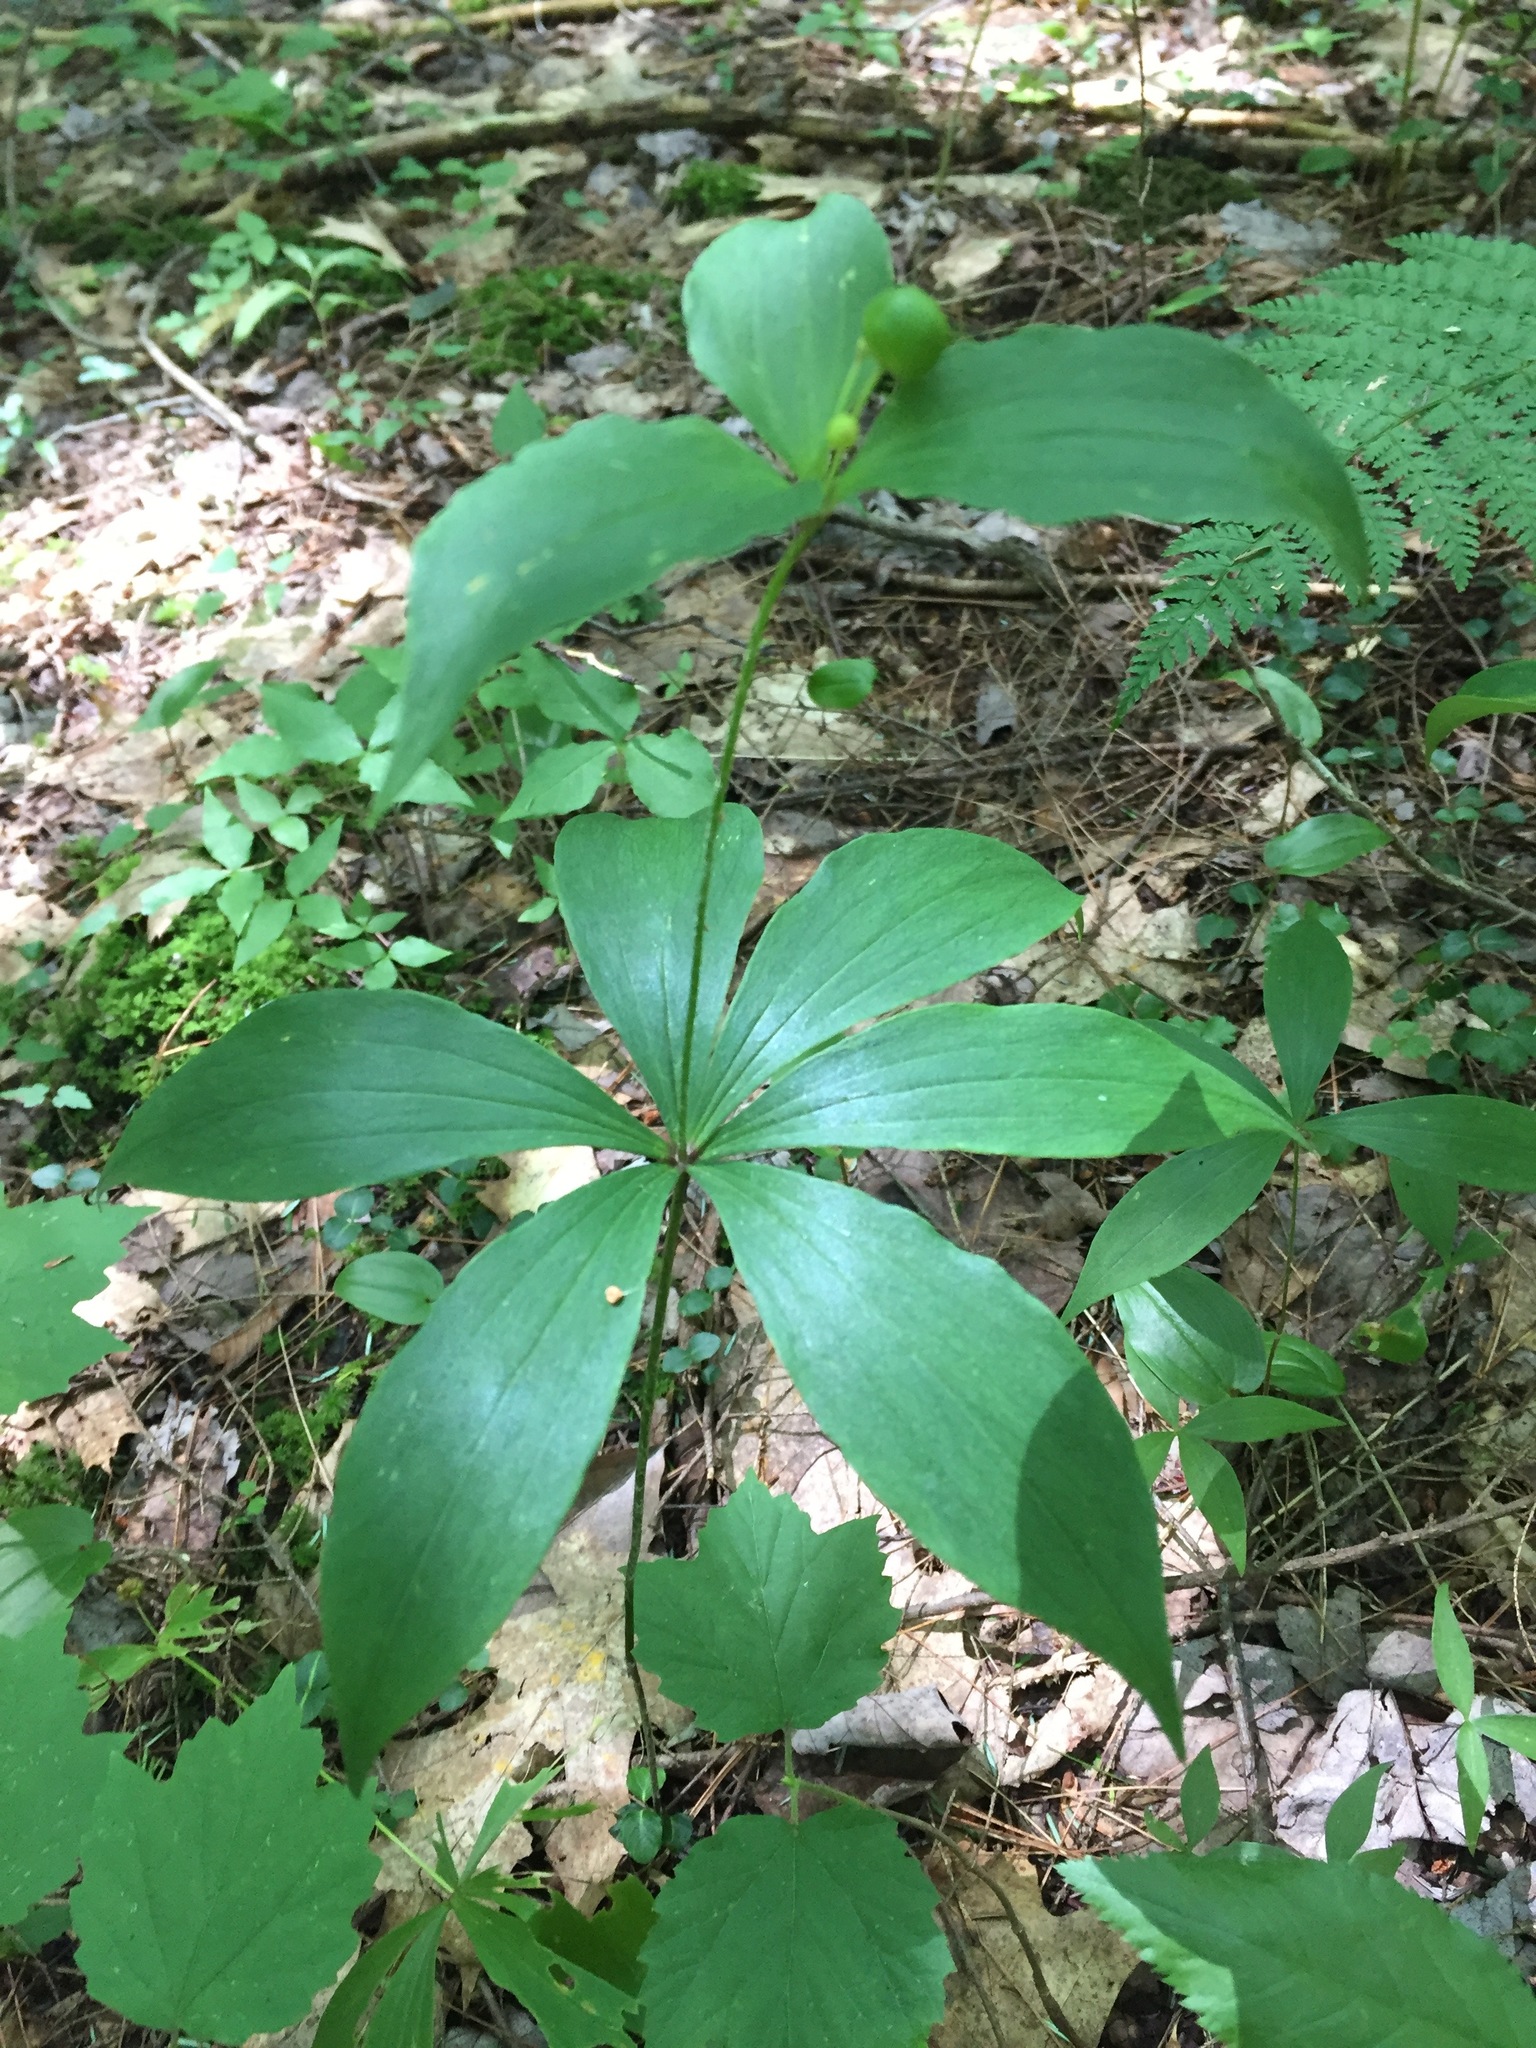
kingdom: Plantae
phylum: Tracheophyta
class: Liliopsida
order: Liliales
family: Liliaceae
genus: Medeola
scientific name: Medeola virginiana
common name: Indian cucumber-root
